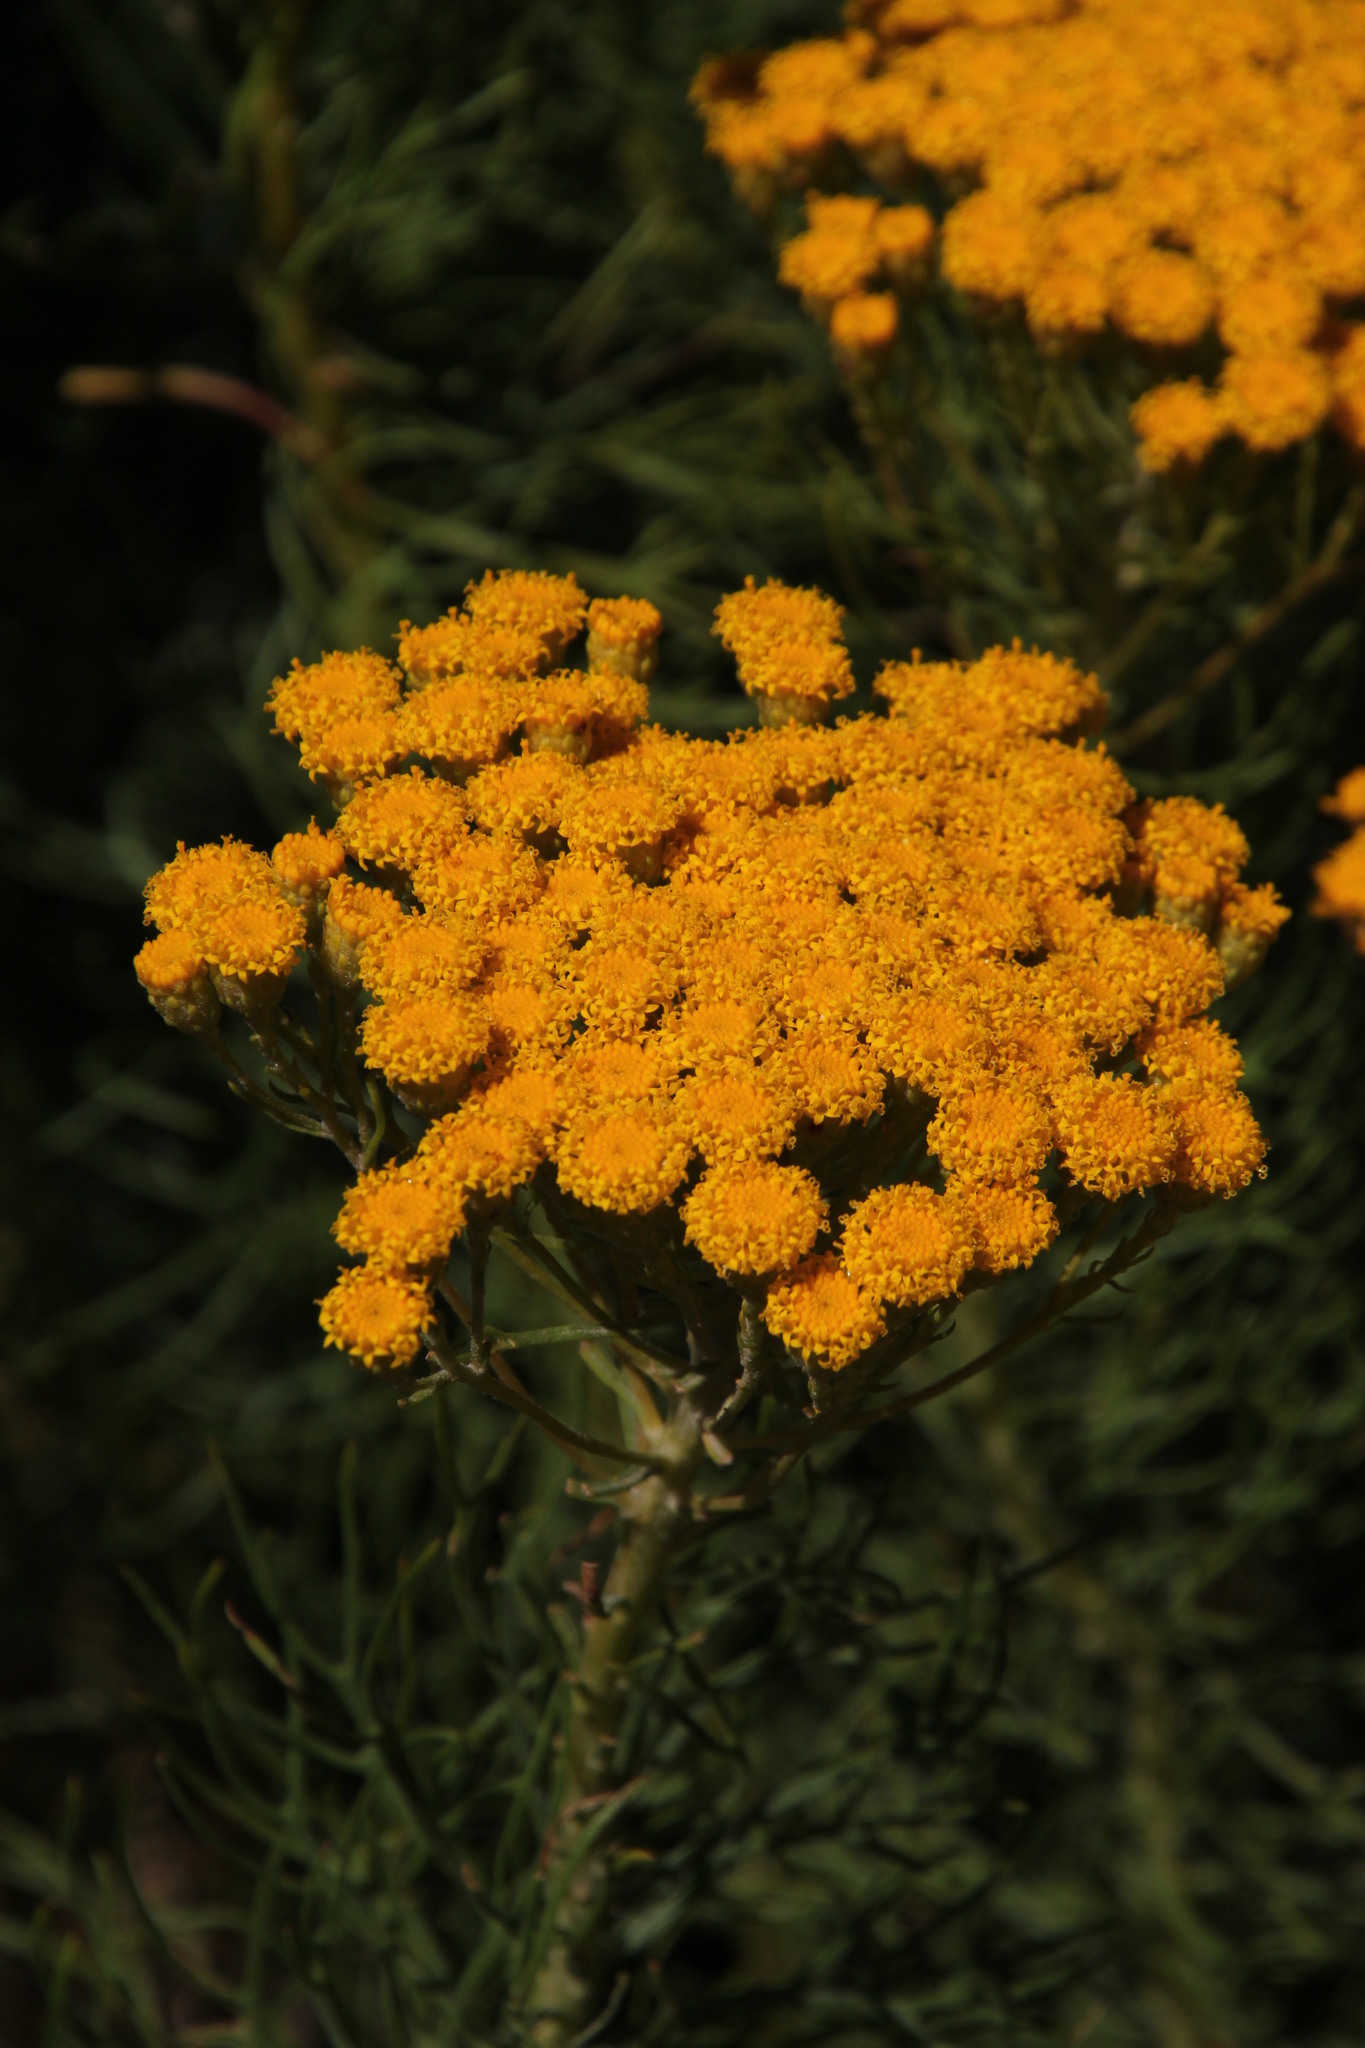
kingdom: Plantae
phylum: Tracheophyta
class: Magnoliopsida
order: Asterales
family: Asteraceae
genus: Athanasia
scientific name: Athanasia crithmifolia
